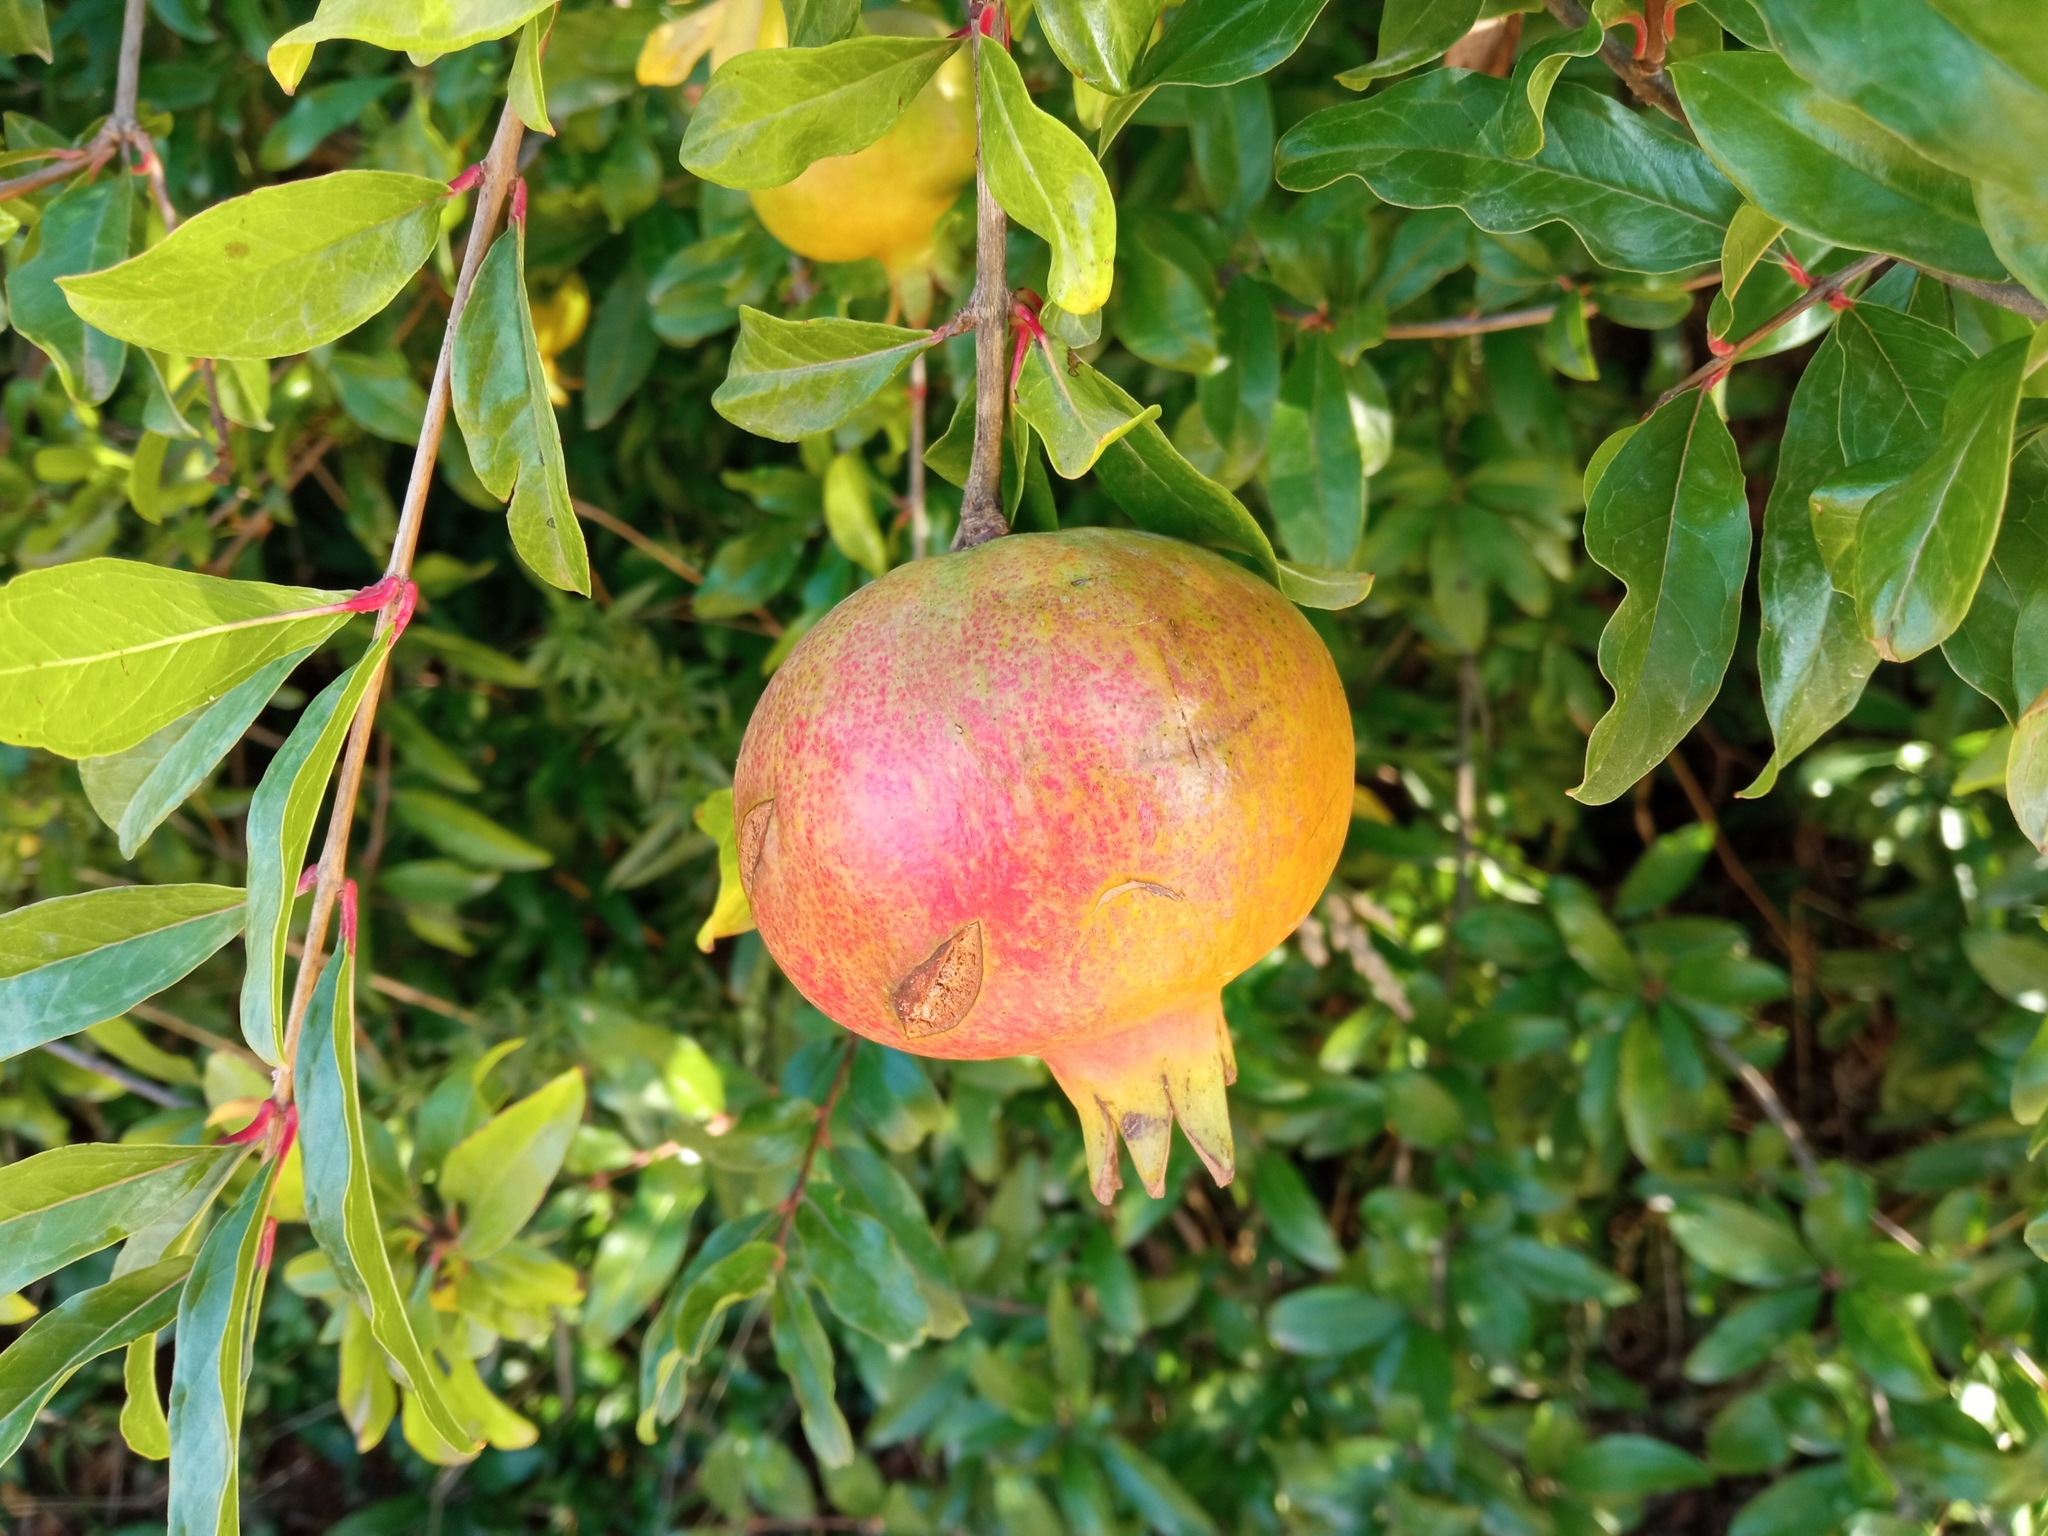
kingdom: Plantae
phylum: Tracheophyta
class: Magnoliopsida
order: Myrtales
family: Lythraceae
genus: Punica
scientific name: Punica granatum
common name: Pomegranate
